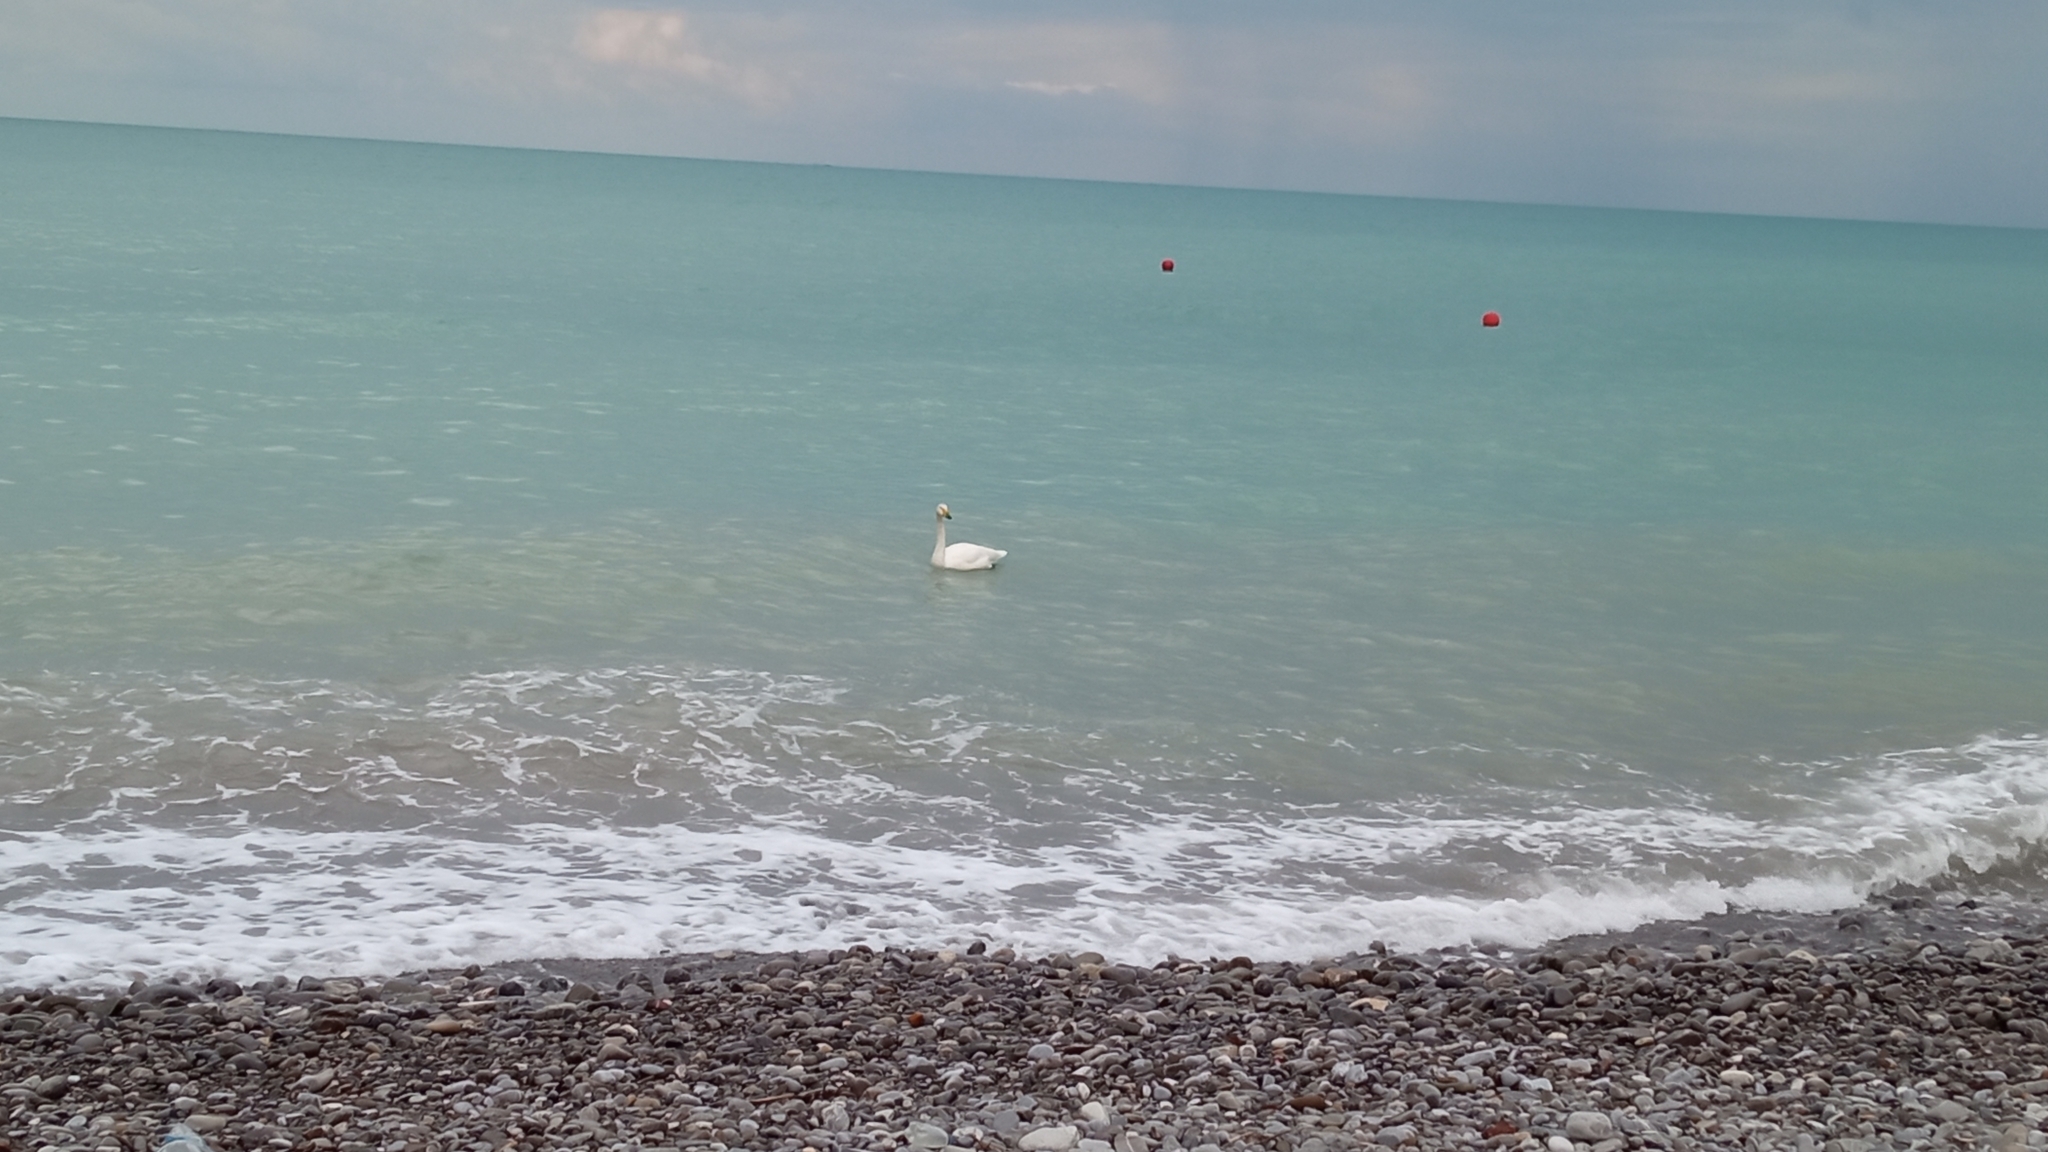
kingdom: Animalia
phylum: Chordata
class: Aves
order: Anseriformes
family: Anatidae
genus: Cygnus
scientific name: Cygnus cygnus
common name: Whooper swan
